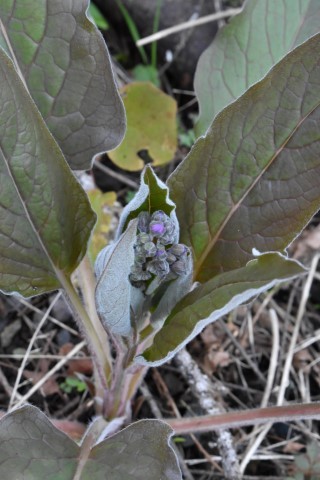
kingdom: Plantae
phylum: Tracheophyta
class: Magnoliopsida
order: Boraginales
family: Boraginaceae
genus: Adelinia
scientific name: Adelinia grande
